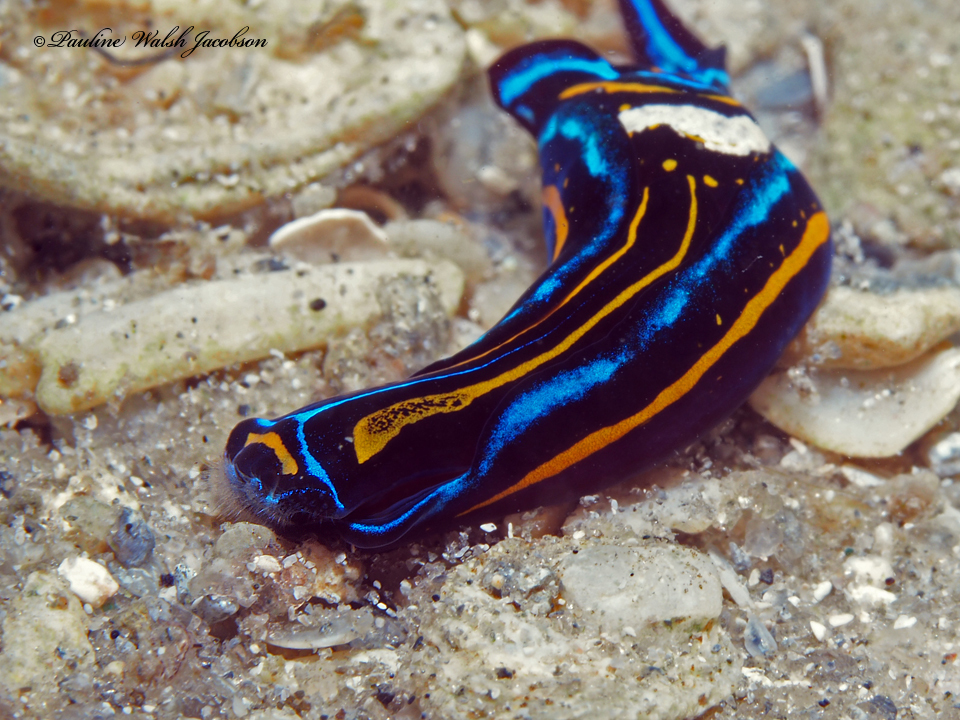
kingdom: Animalia
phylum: Mollusca
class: Gastropoda
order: Cephalaspidea
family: Aglajidae
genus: Chelidonura
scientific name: Chelidonura hirundinina
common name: Leech headshield slug
